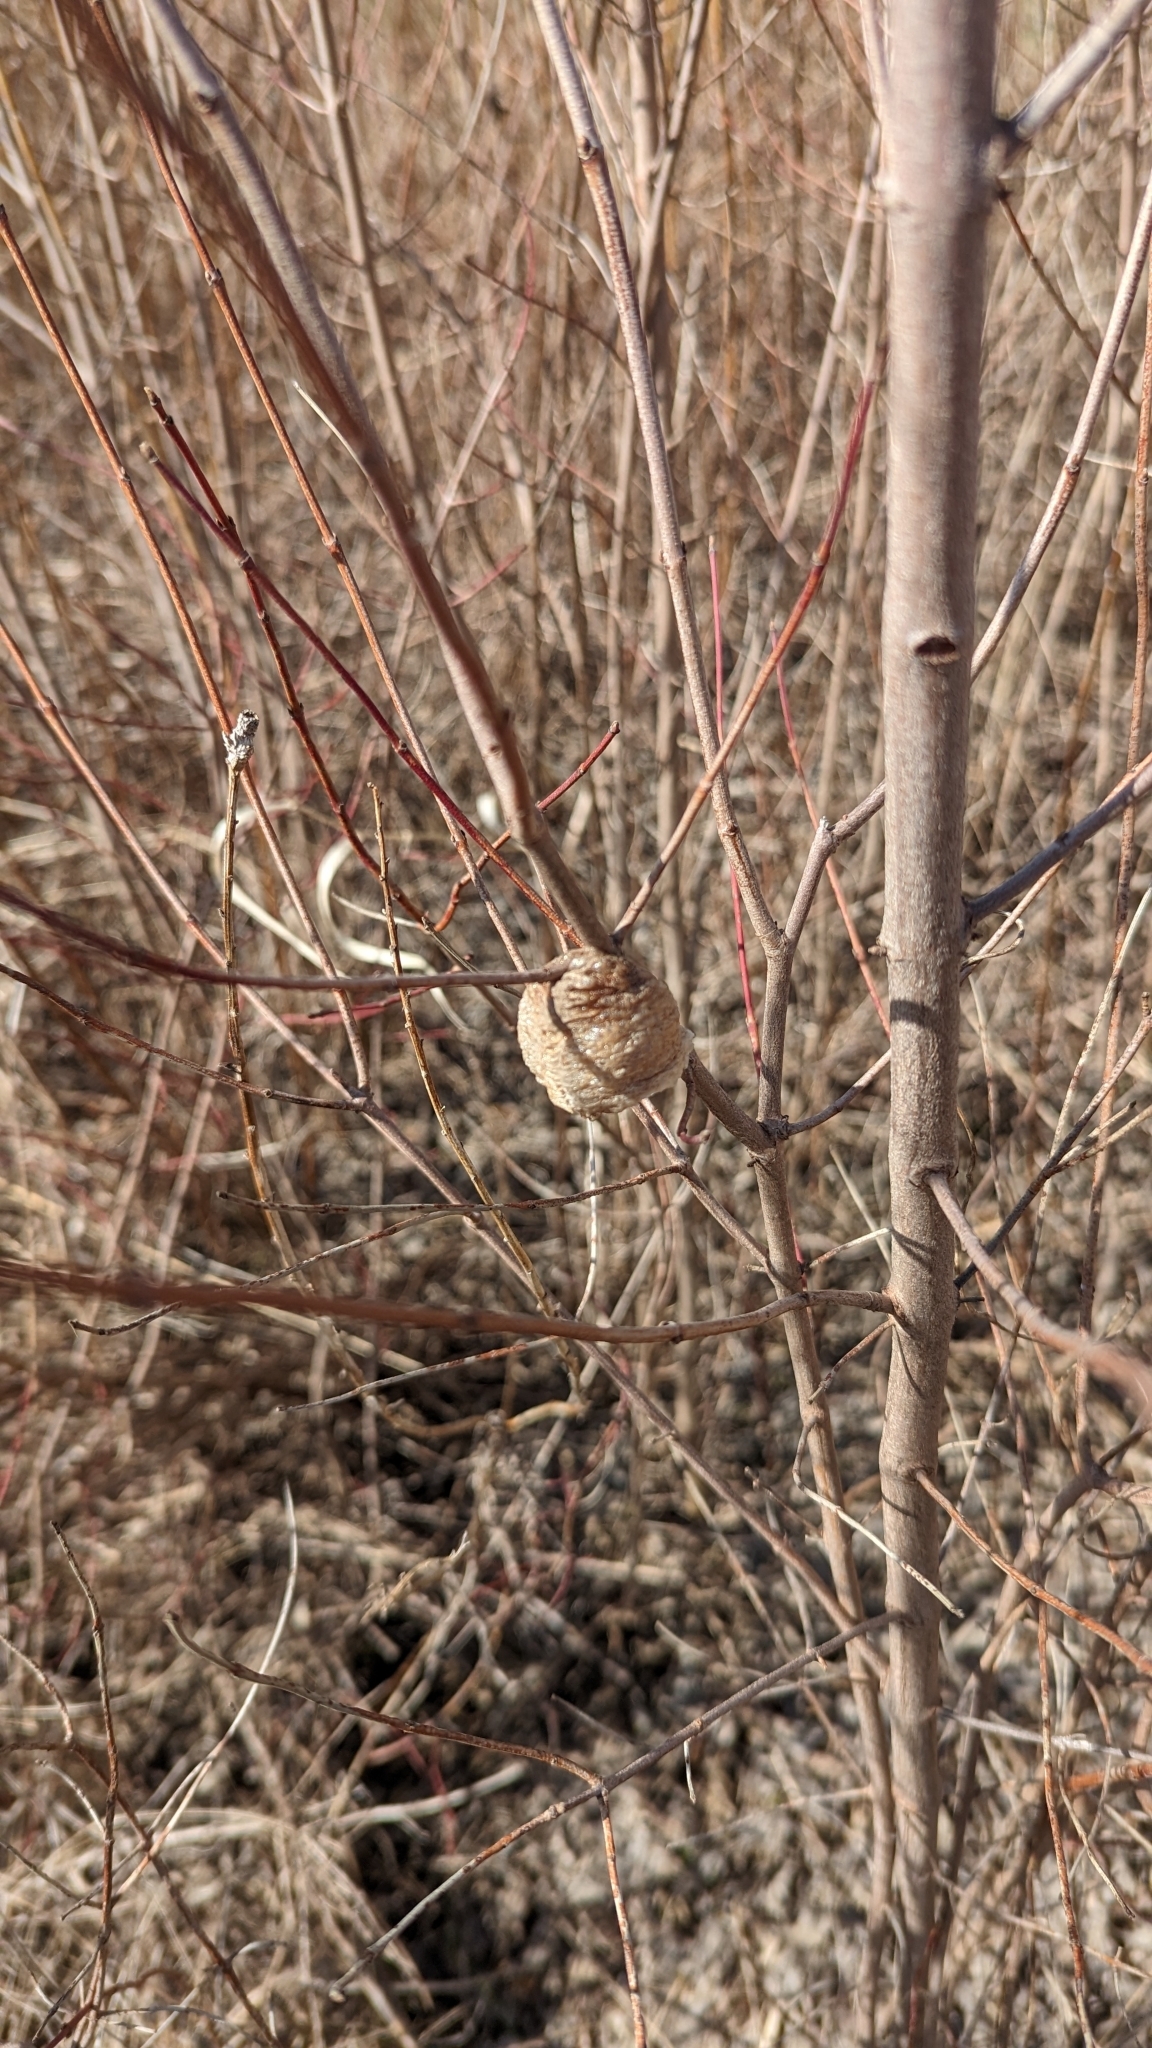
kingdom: Animalia
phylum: Arthropoda
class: Insecta
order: Mantodea
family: Mantidae
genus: Tenodera
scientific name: Tenodera sinensis
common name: Chinese mantis
